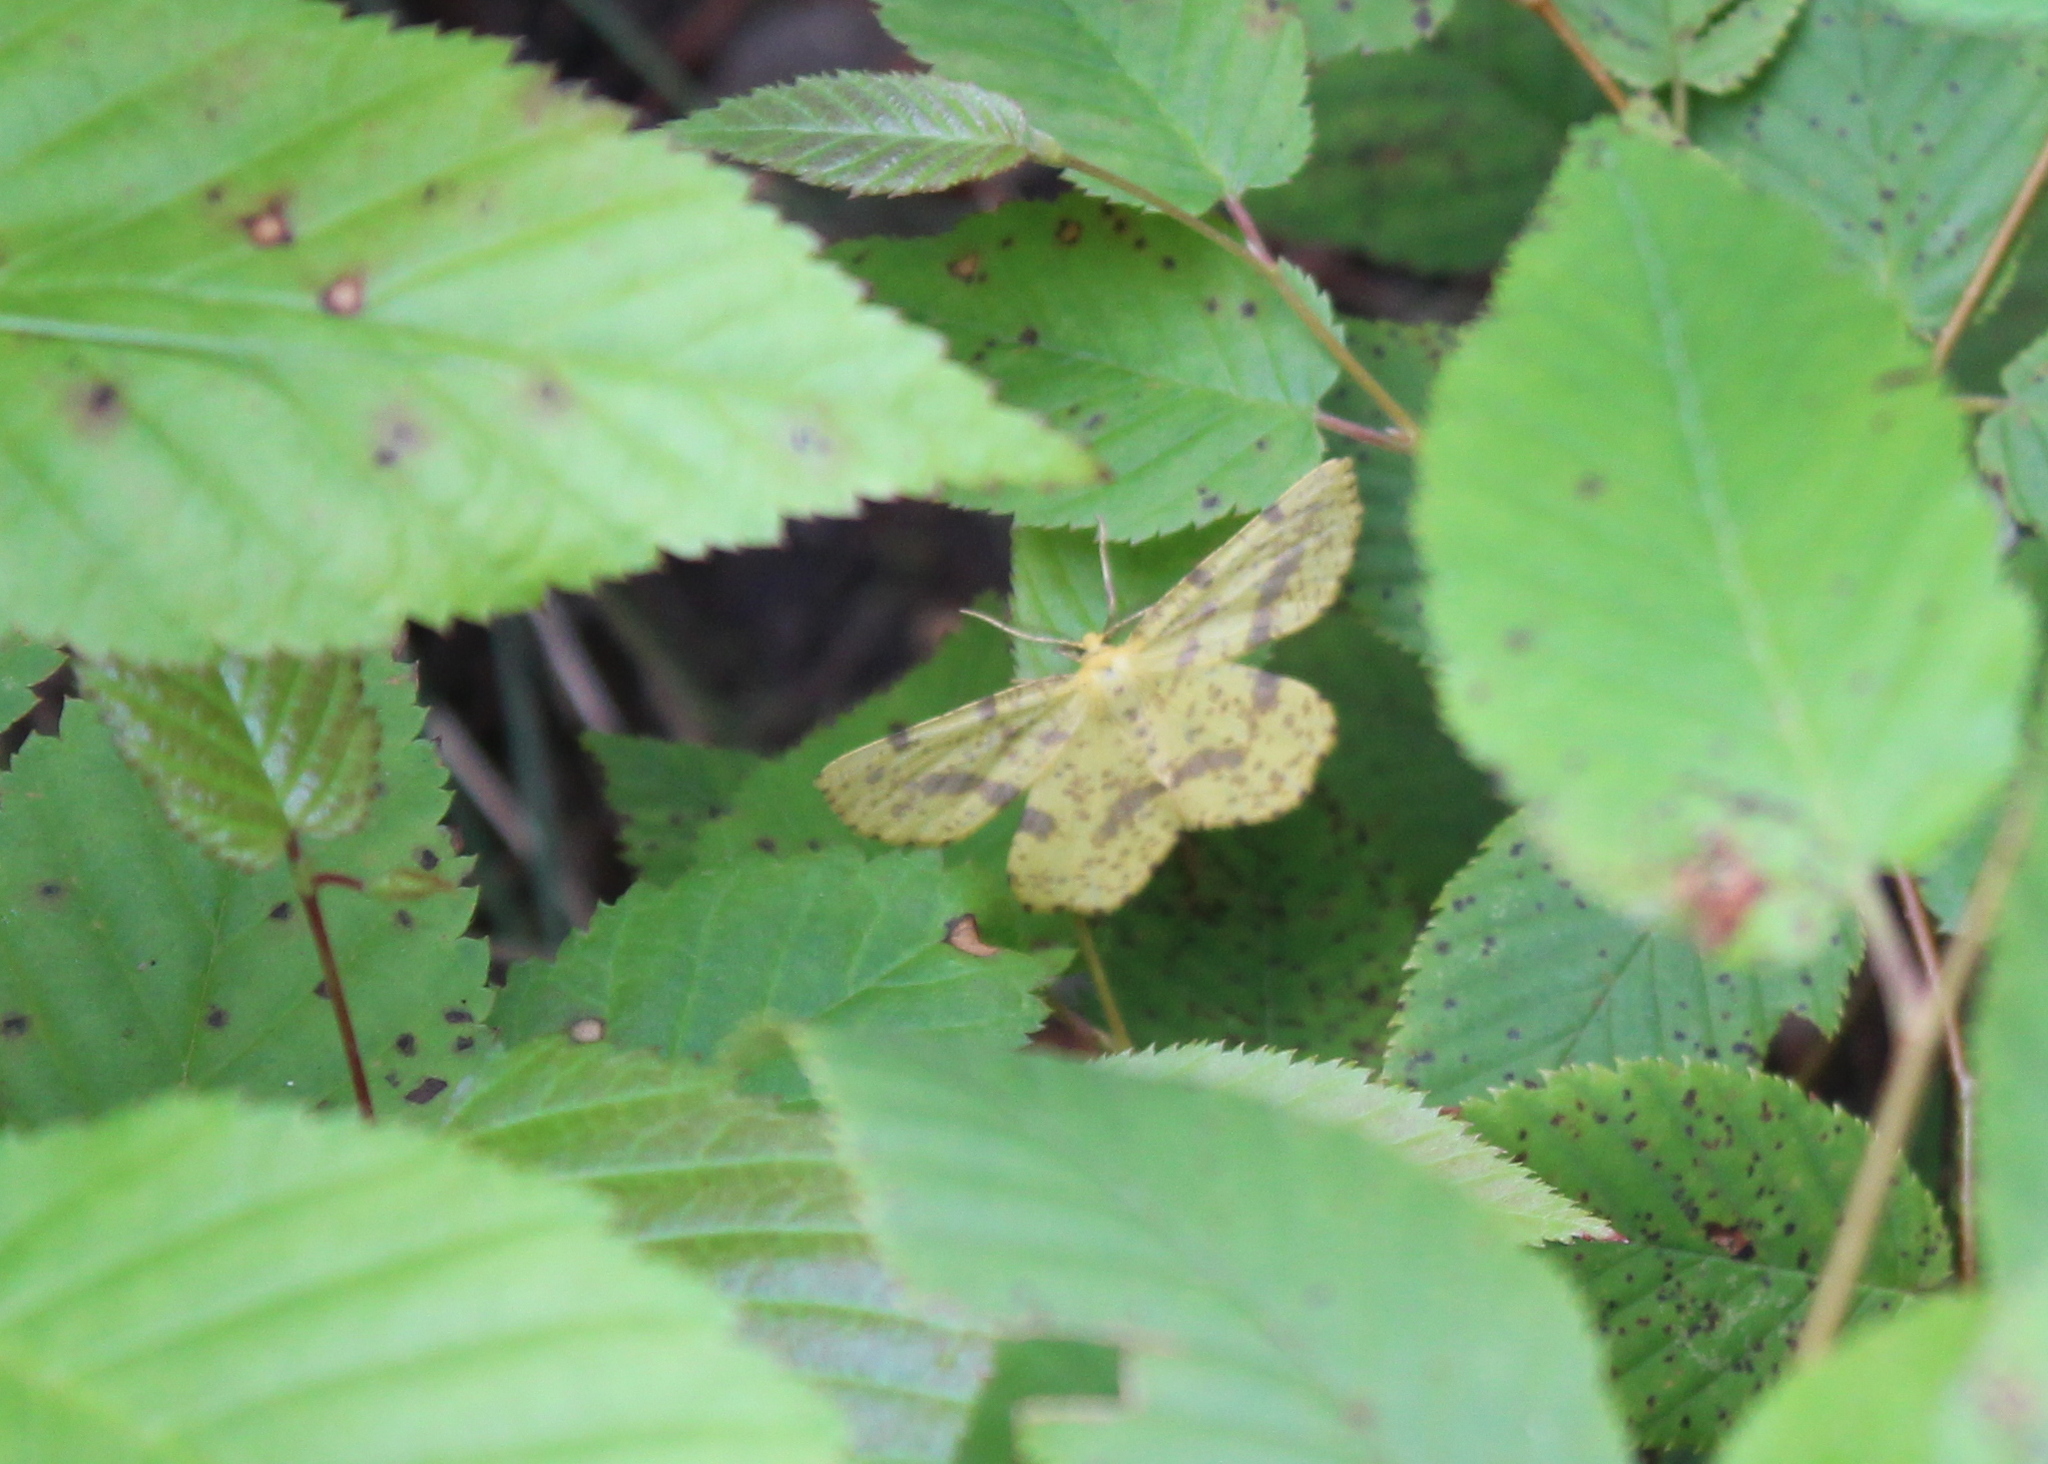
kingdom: Animalia
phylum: Arthropoda
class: Insecta
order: Lepidoptera
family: Geometridae
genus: Xanthotype
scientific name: Xanthotype
